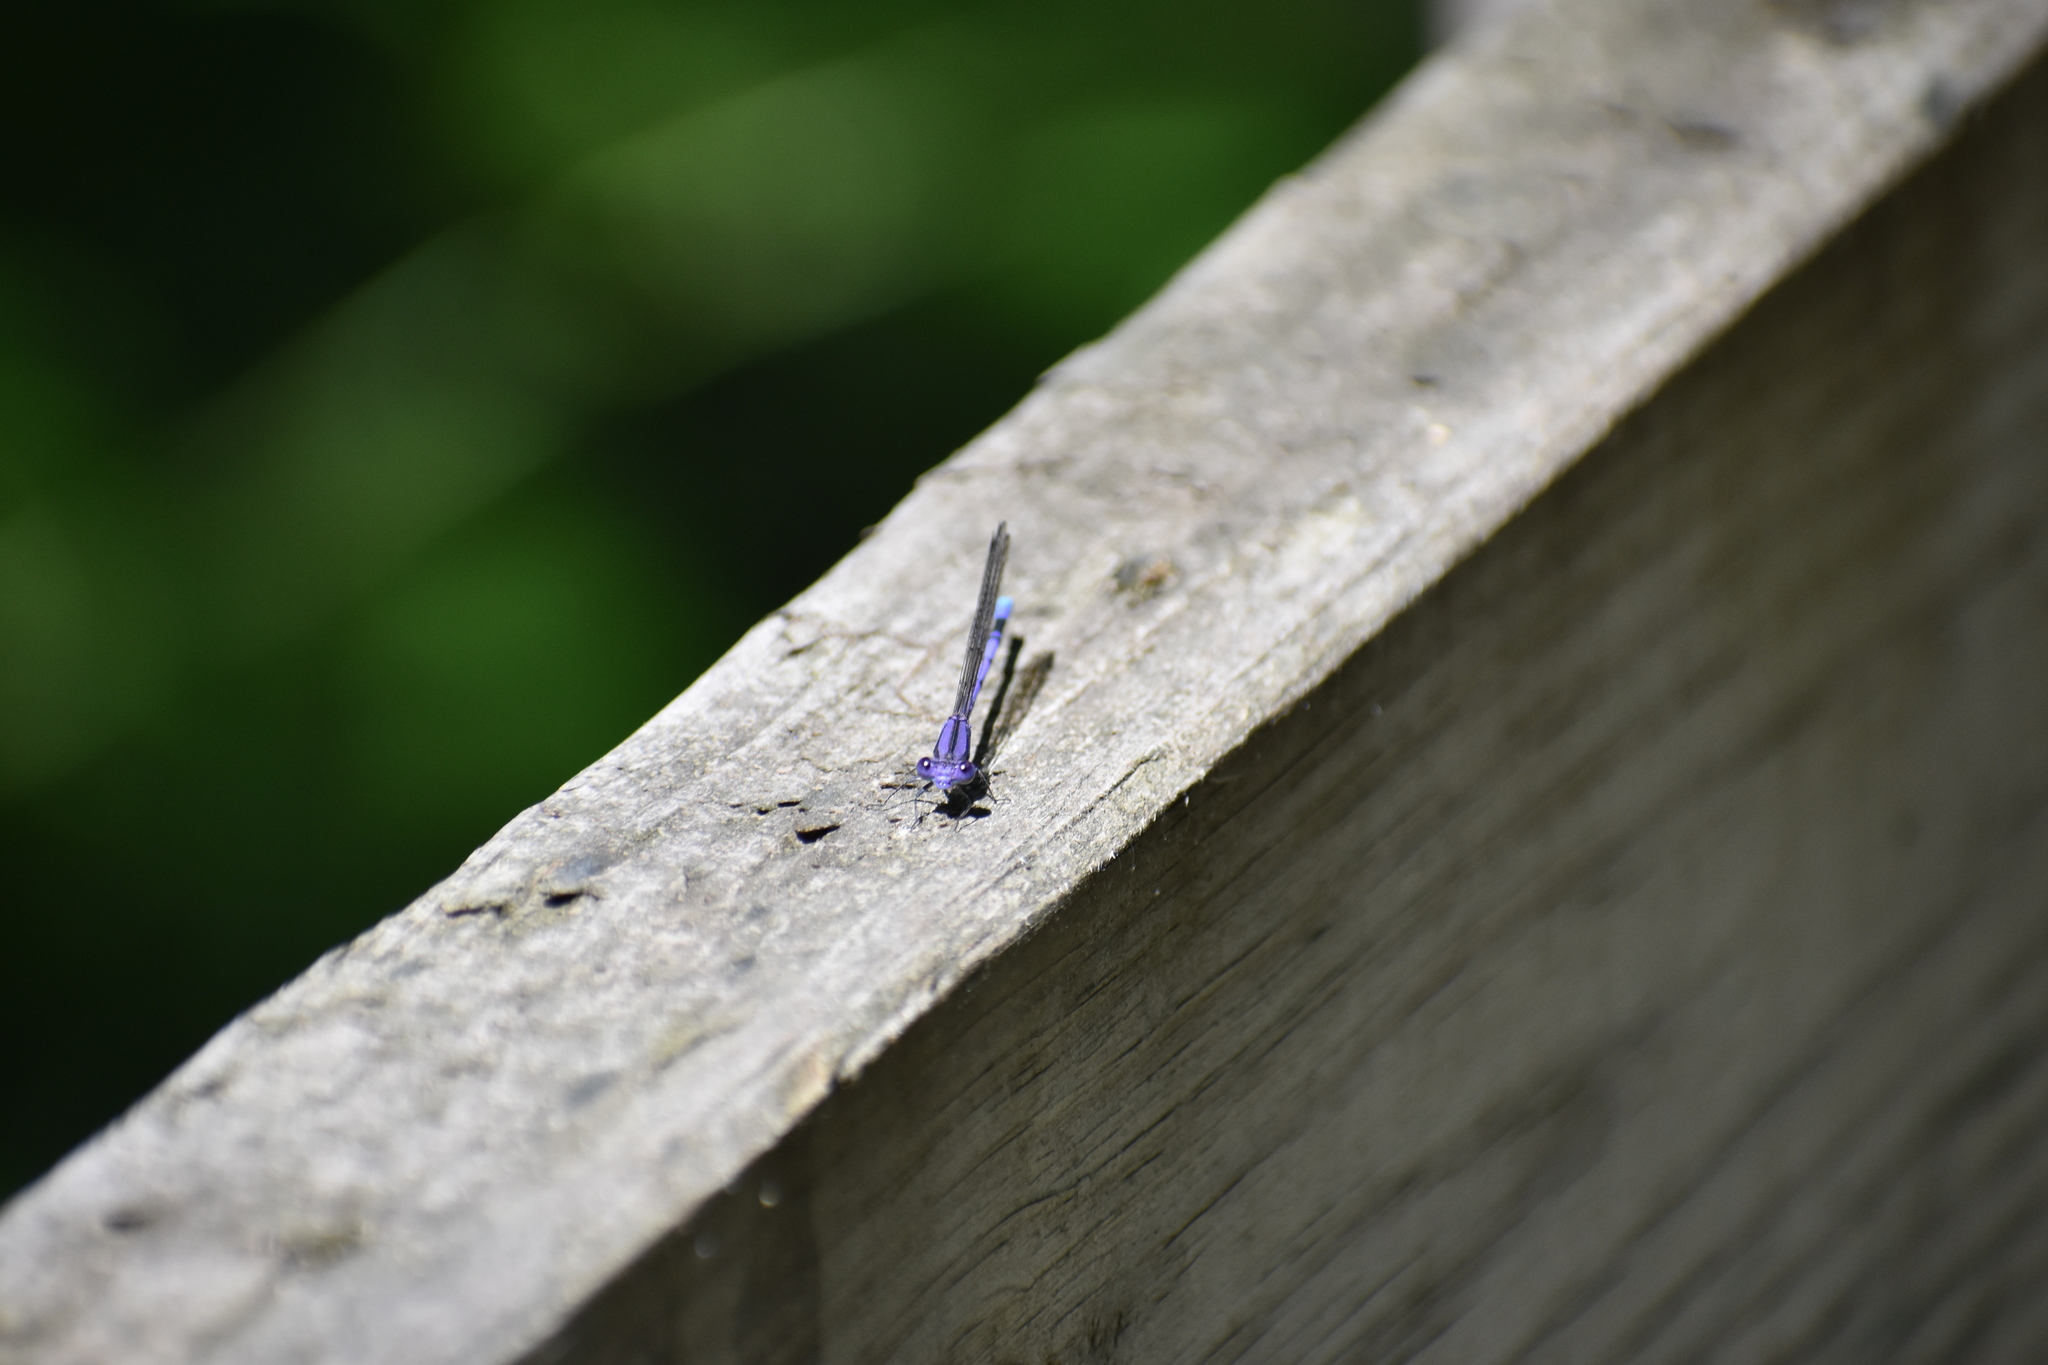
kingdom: Animalia
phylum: Arthropoda
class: Insecta
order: Odonata
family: Coenagrionidae
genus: Argia
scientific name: Argia fumipennis
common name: Variable dancer
